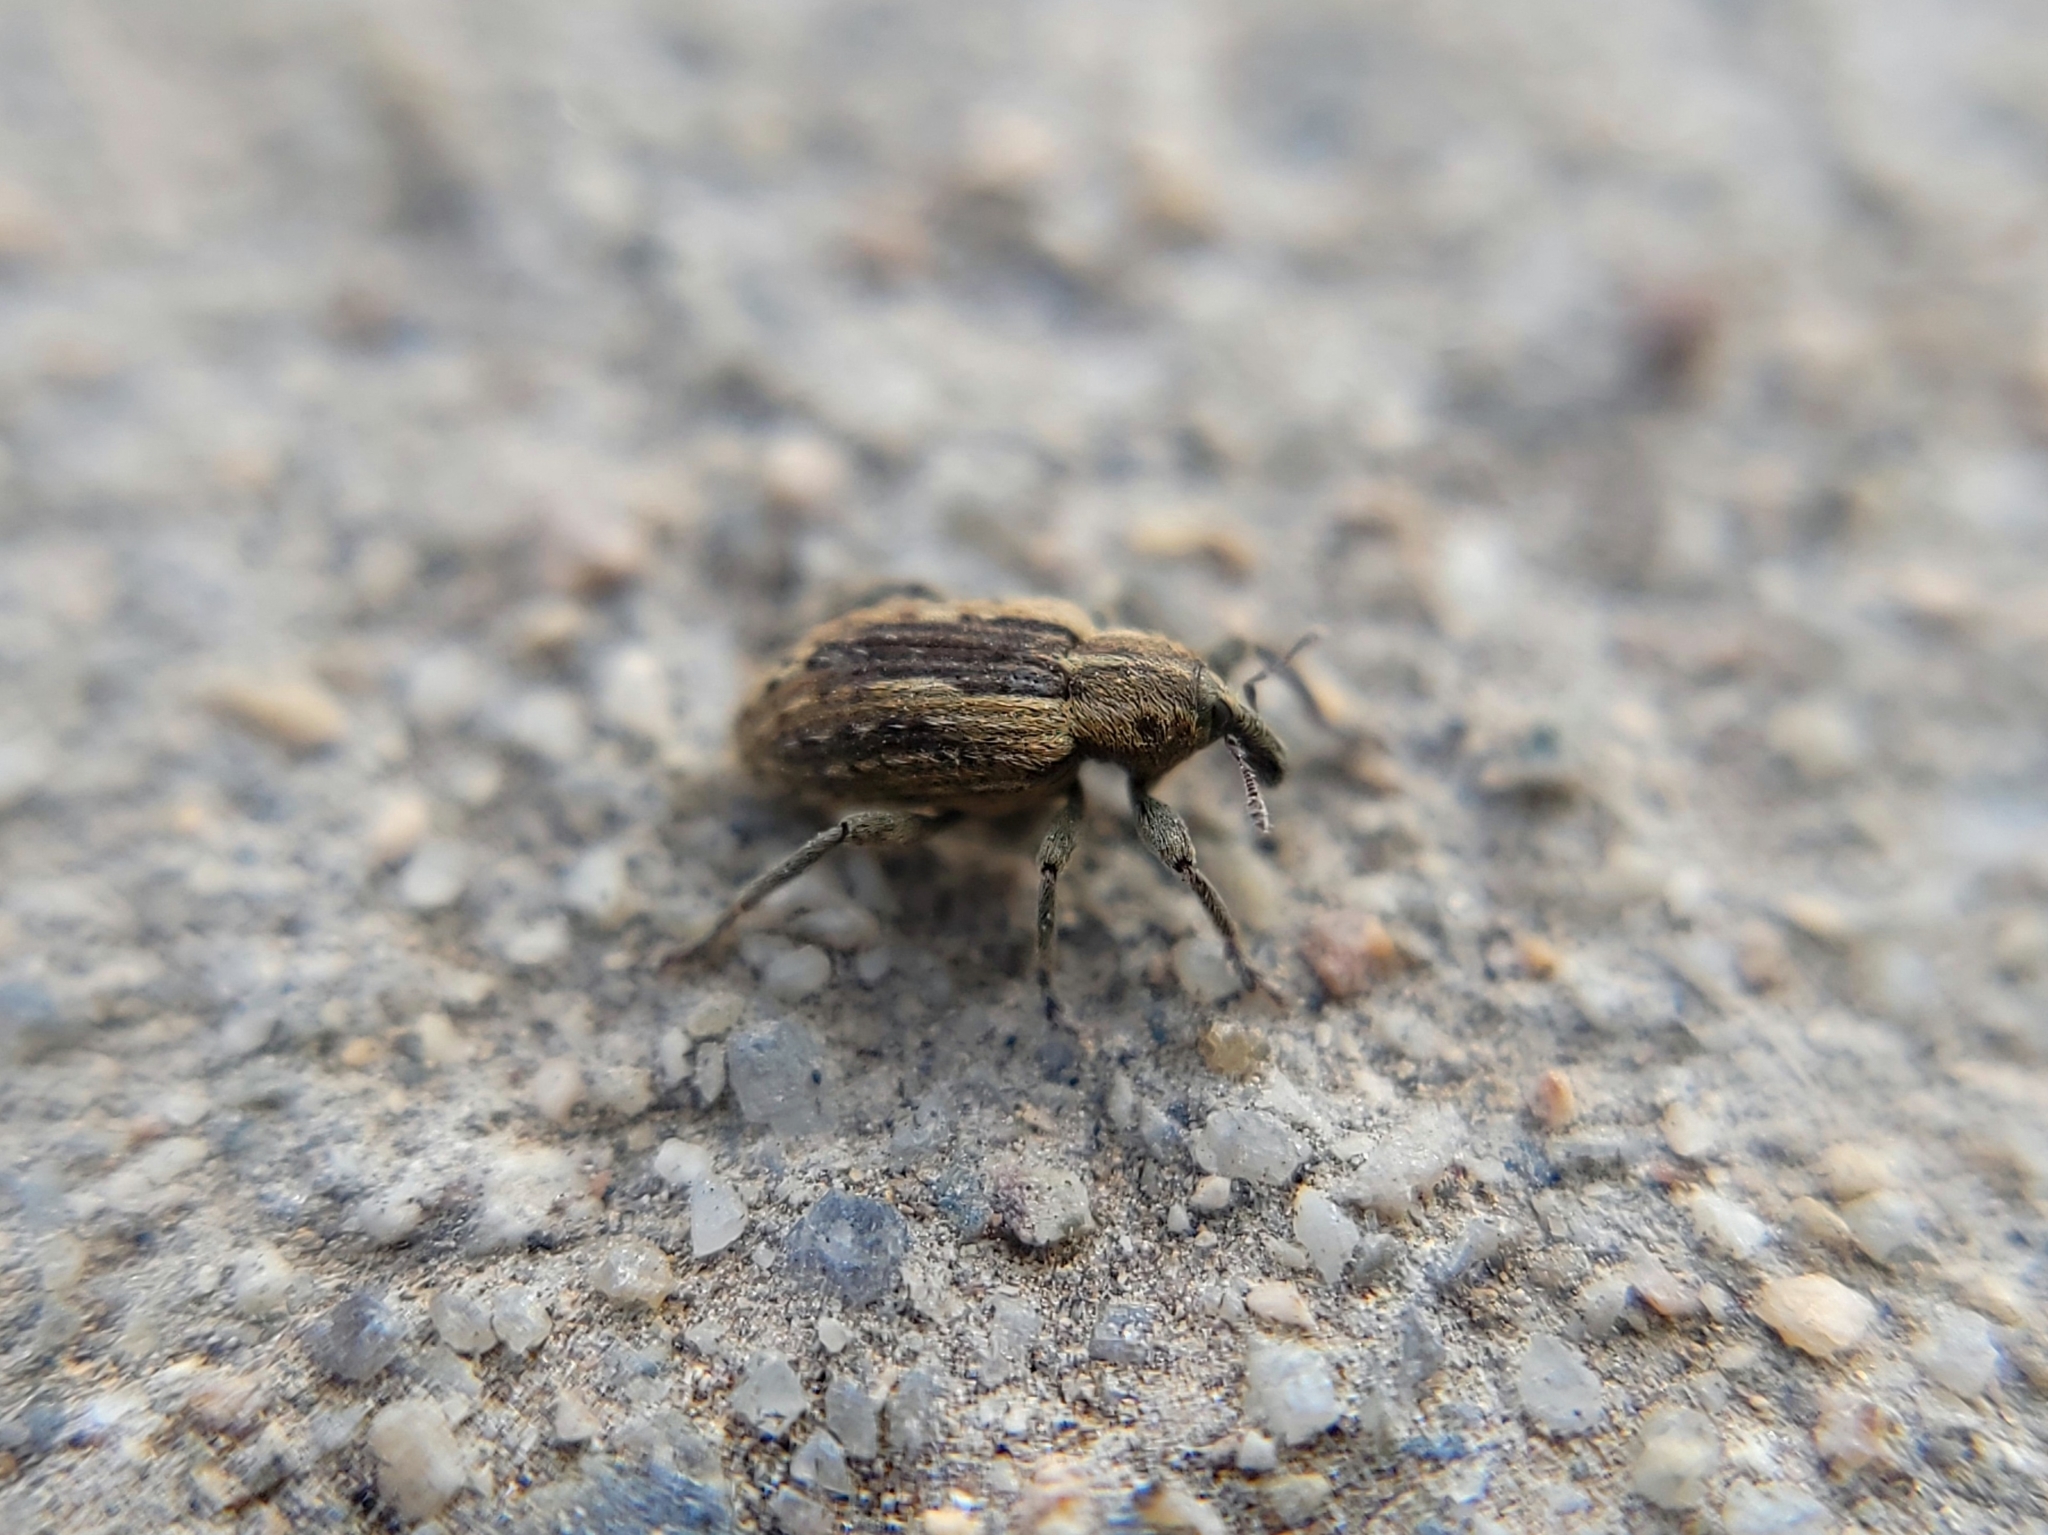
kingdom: Animalia
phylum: Arthropoda
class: Insecta
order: Coleoptera
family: Curculionidae
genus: Hypera
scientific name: Hypera postica
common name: Weevil
